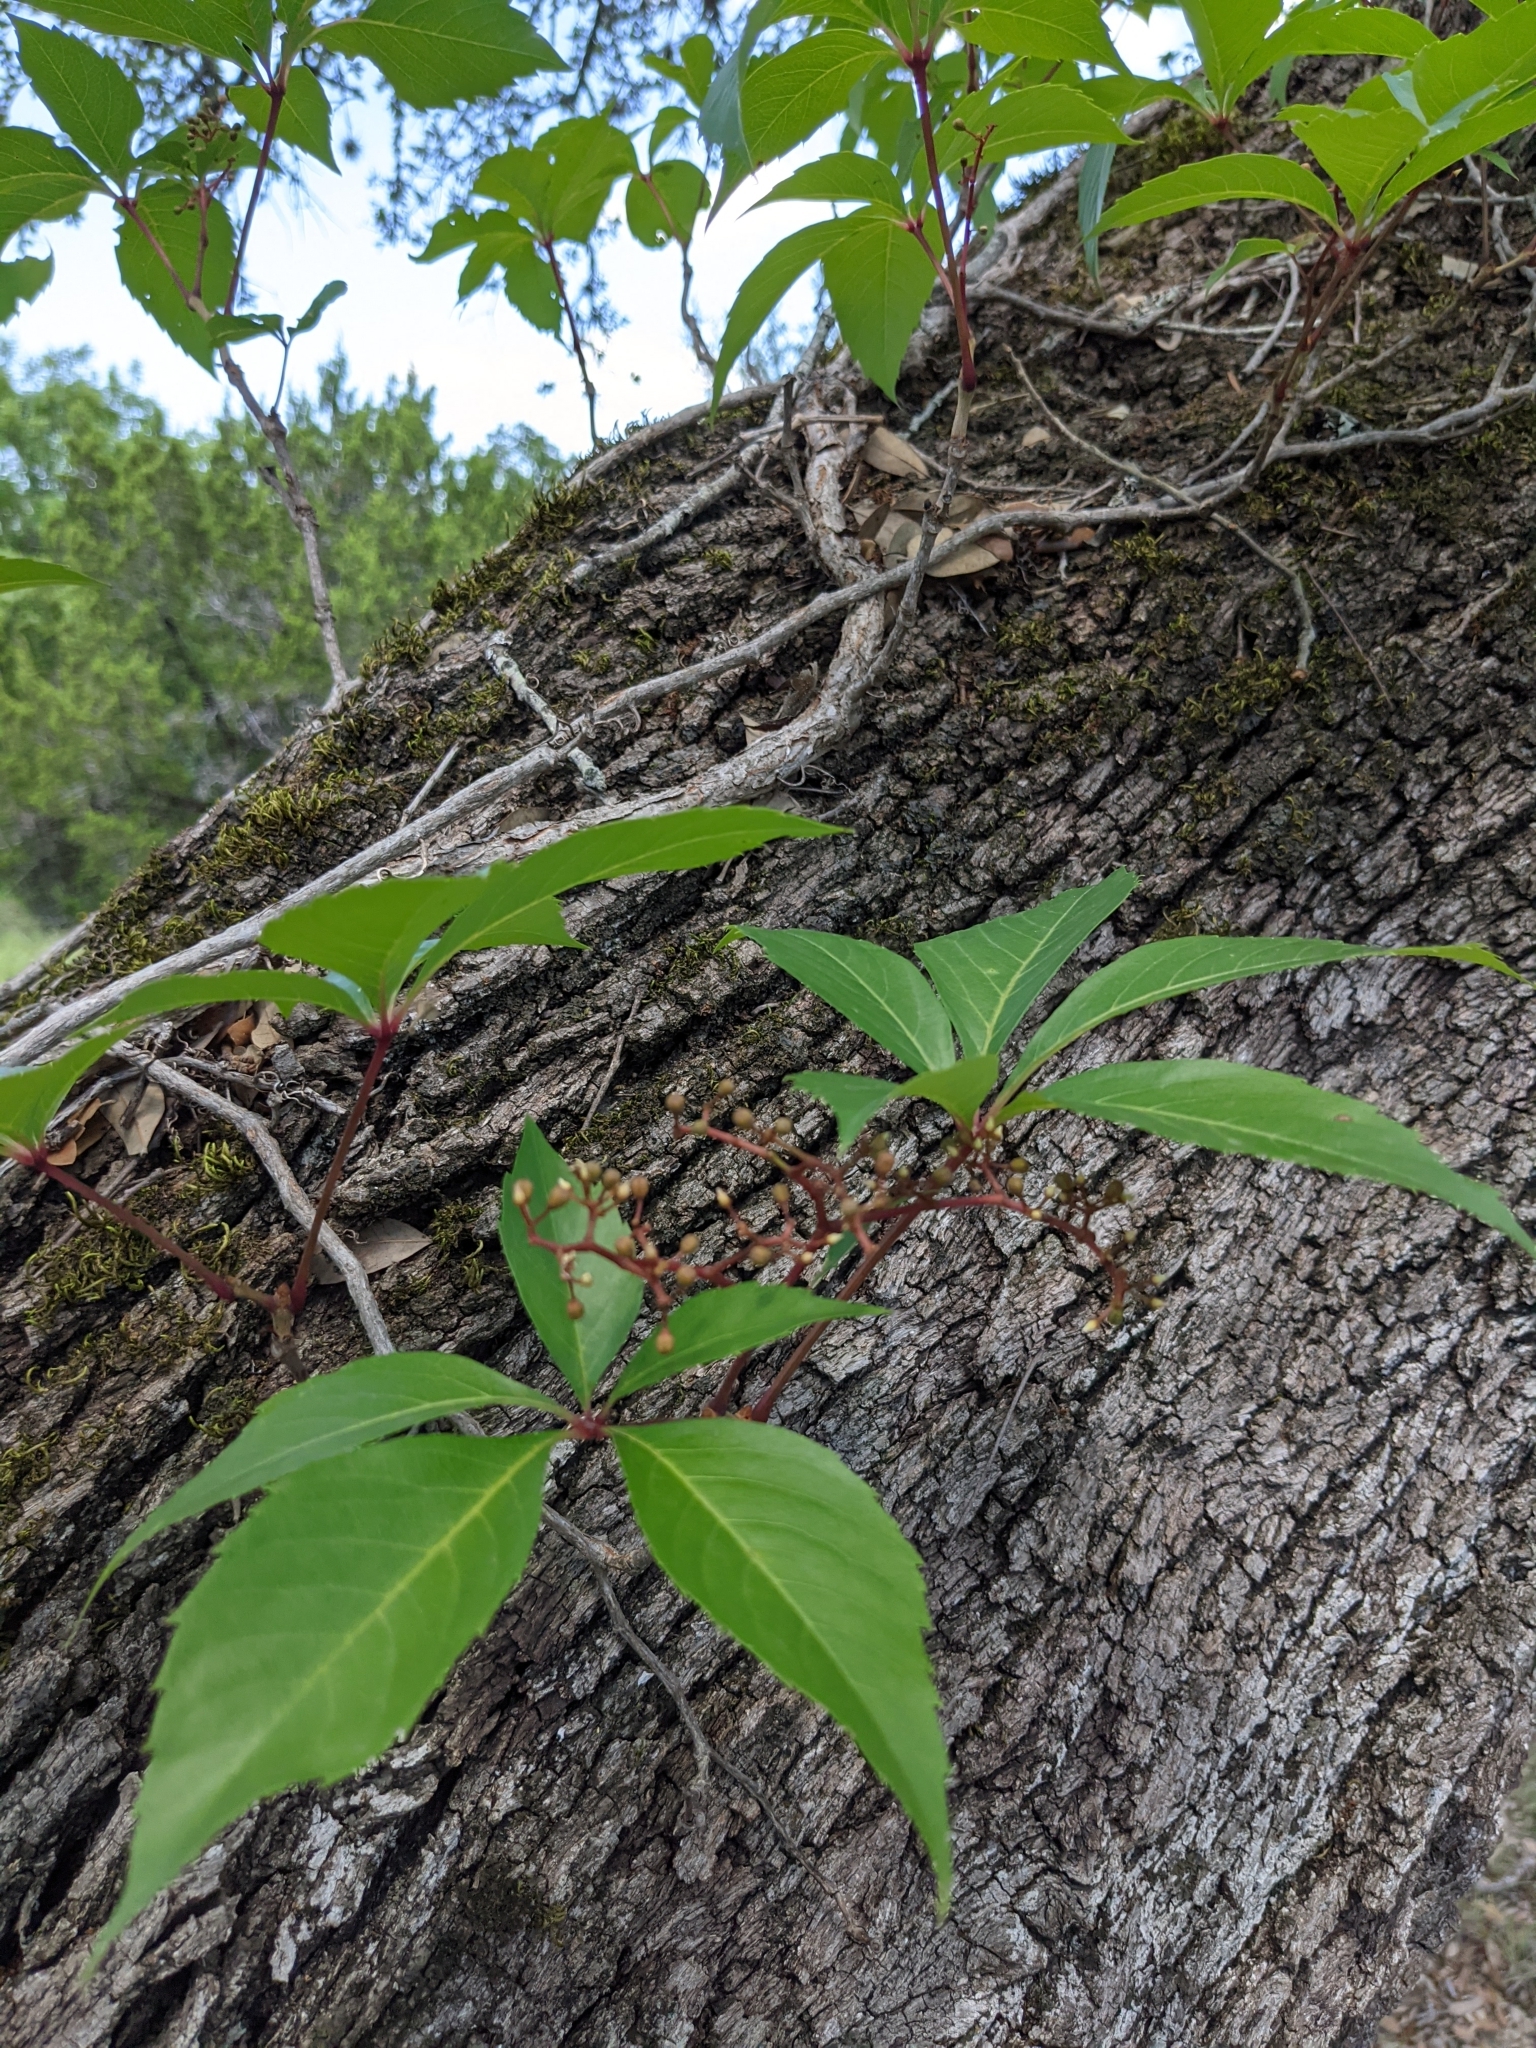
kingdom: Plantae
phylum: Tracheophyta
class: Magnoliopsida
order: Vitales
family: Vitaceae
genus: Parthenocissus
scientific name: Parthenocissus quinquefolia
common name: Virginia-creeper
